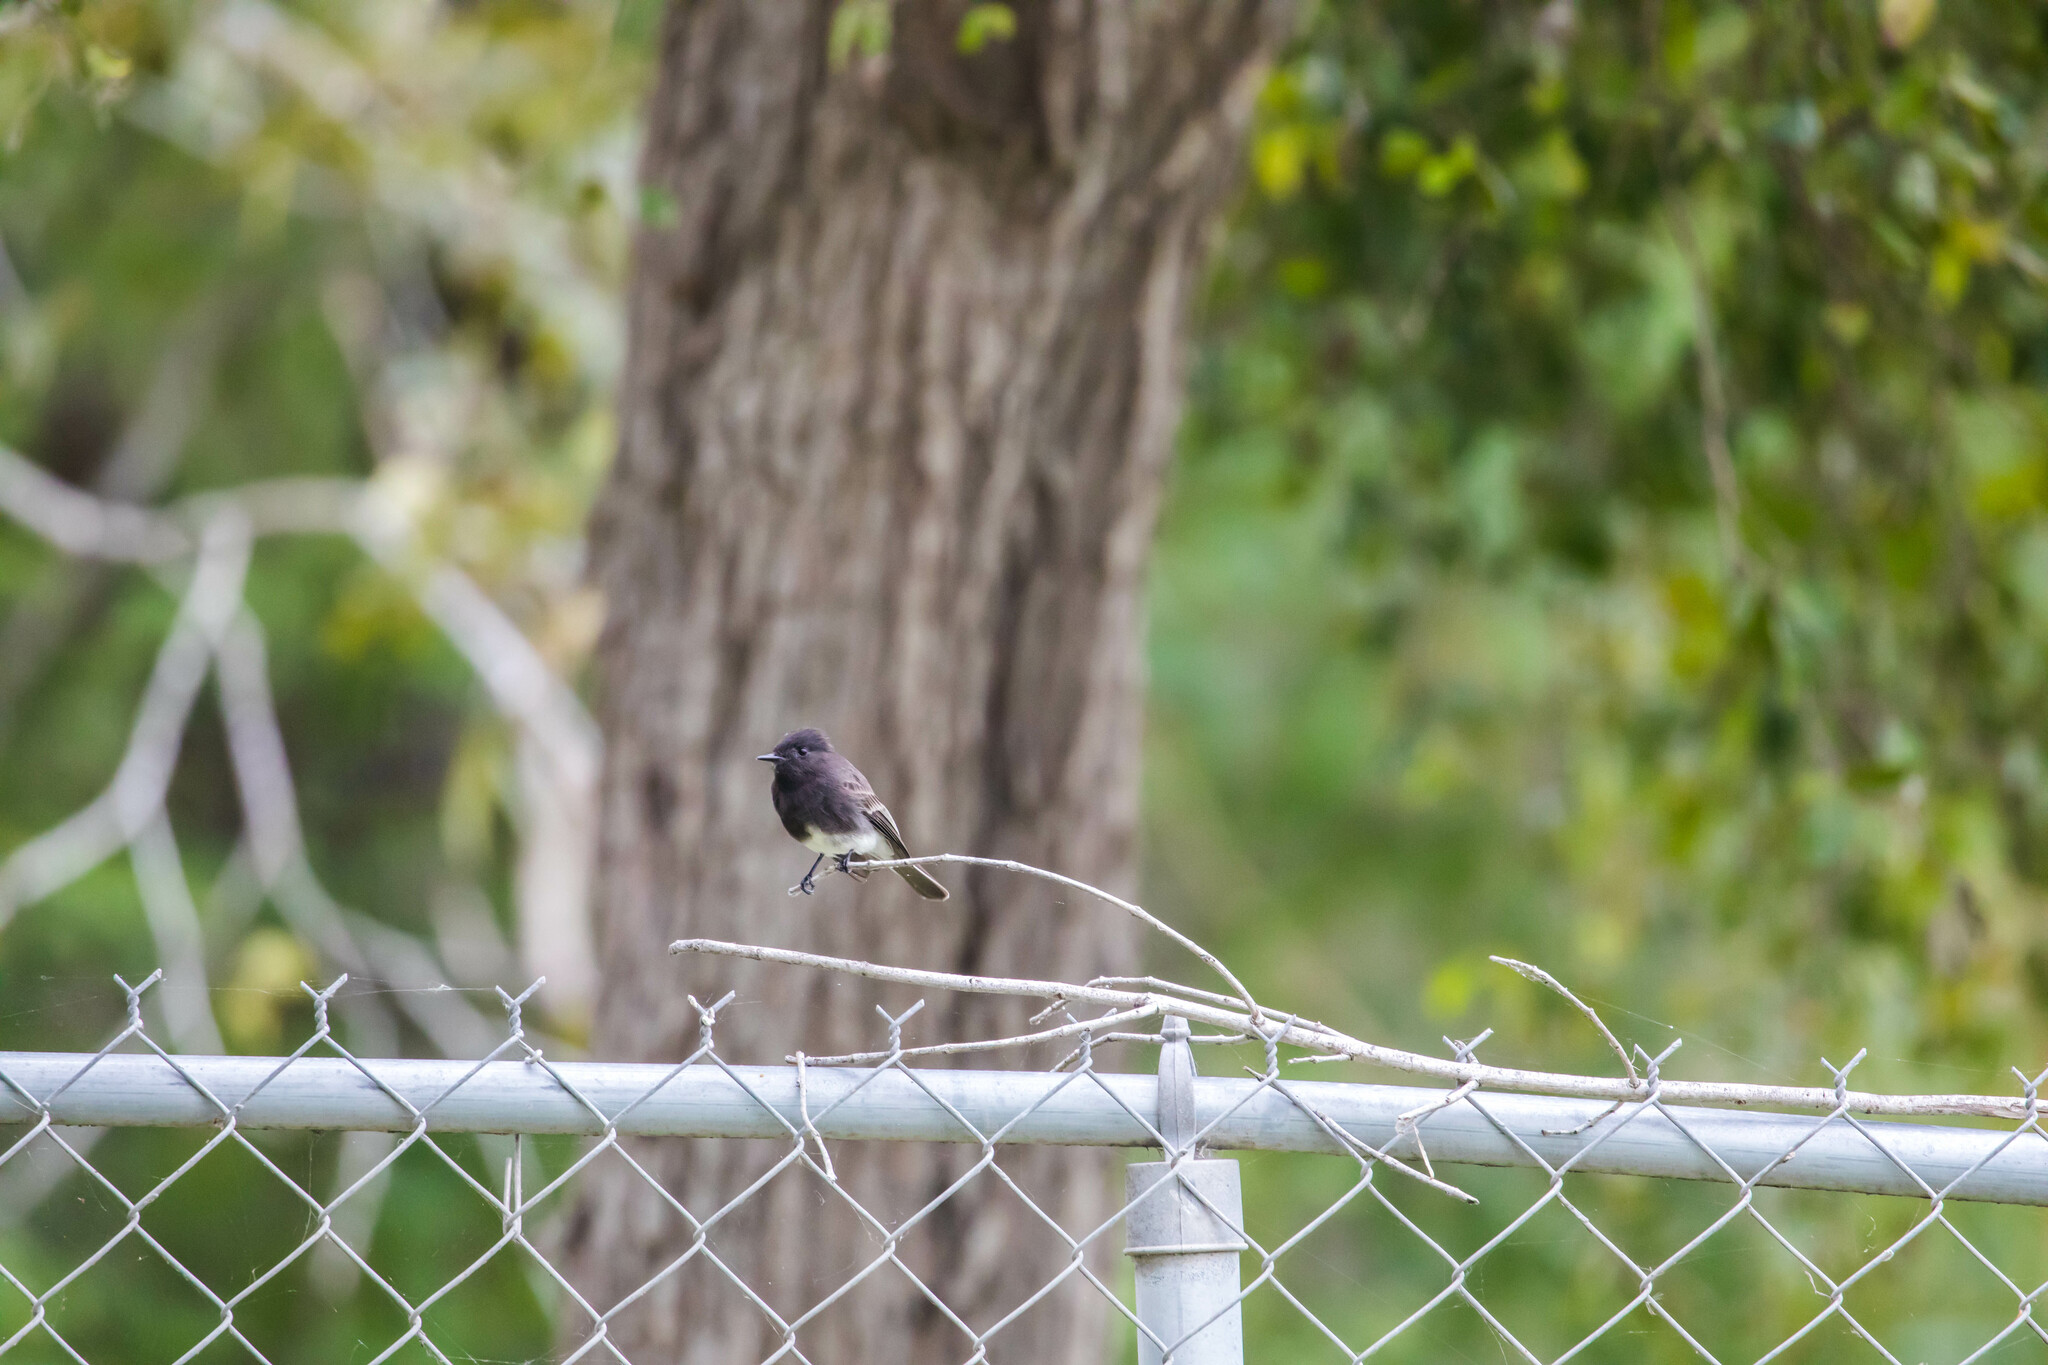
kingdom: Animalia
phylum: Chordata
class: Aves
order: Passeriformes
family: Tyrannidae
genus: Sayornis
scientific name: Sayornis nigricans
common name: Black phoebe
